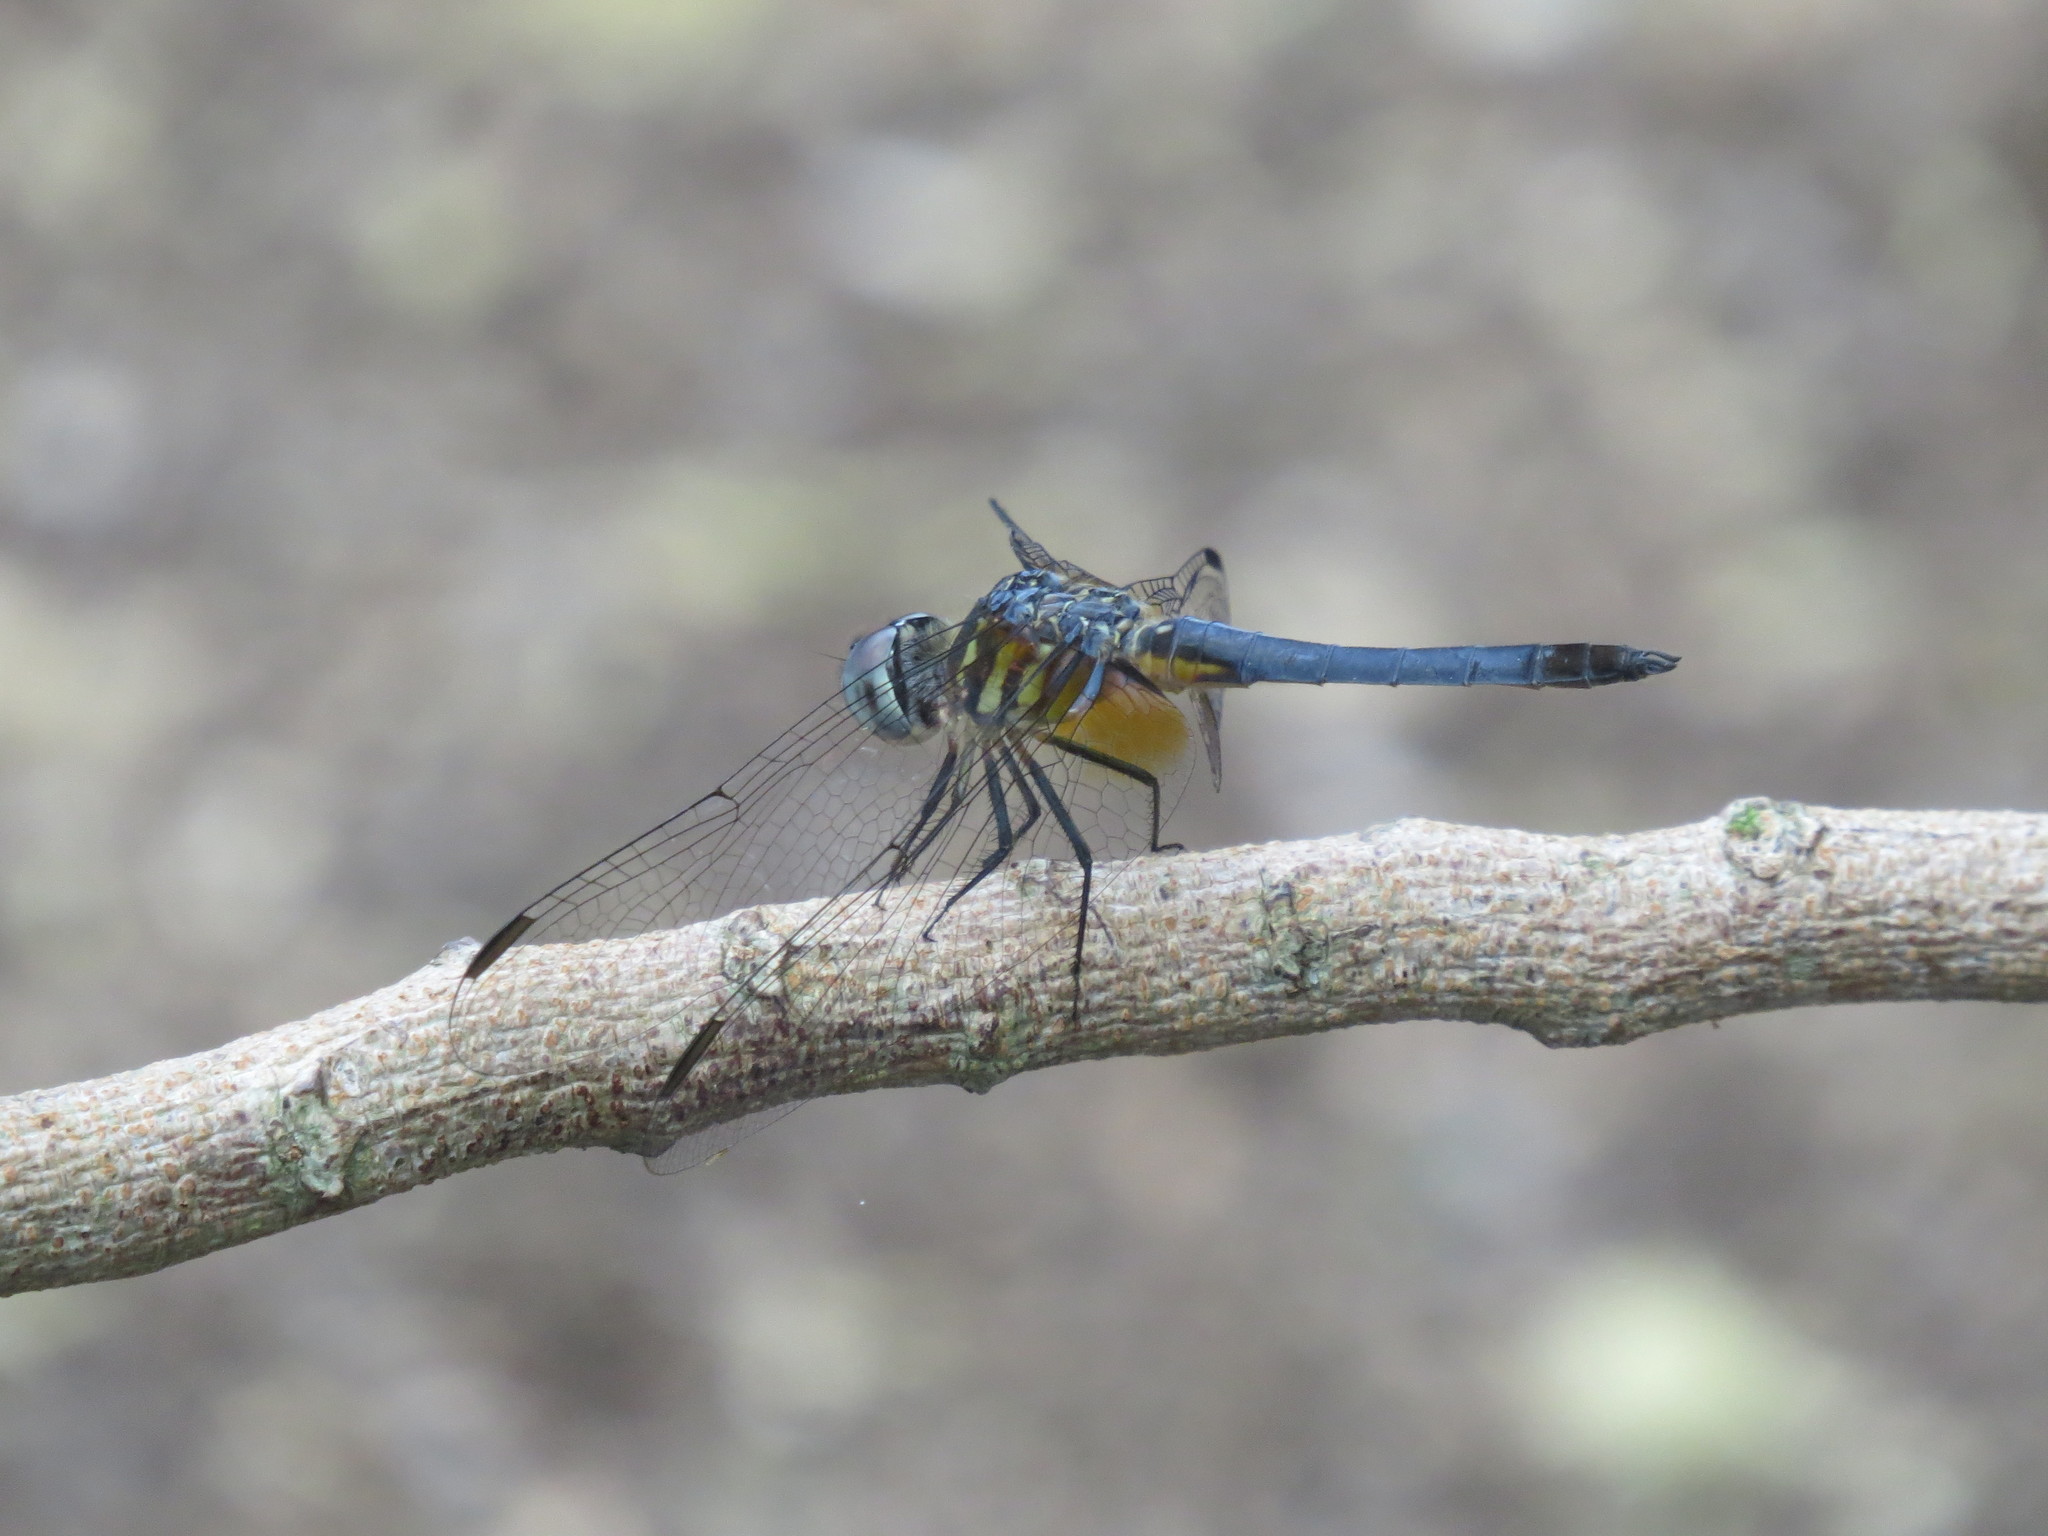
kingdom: Animalia
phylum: Arthropoda
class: Insecta
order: Odonata
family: Libellulidae
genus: Pachydiplax
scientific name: Pachydiplax longipennis
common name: Blue dasher
